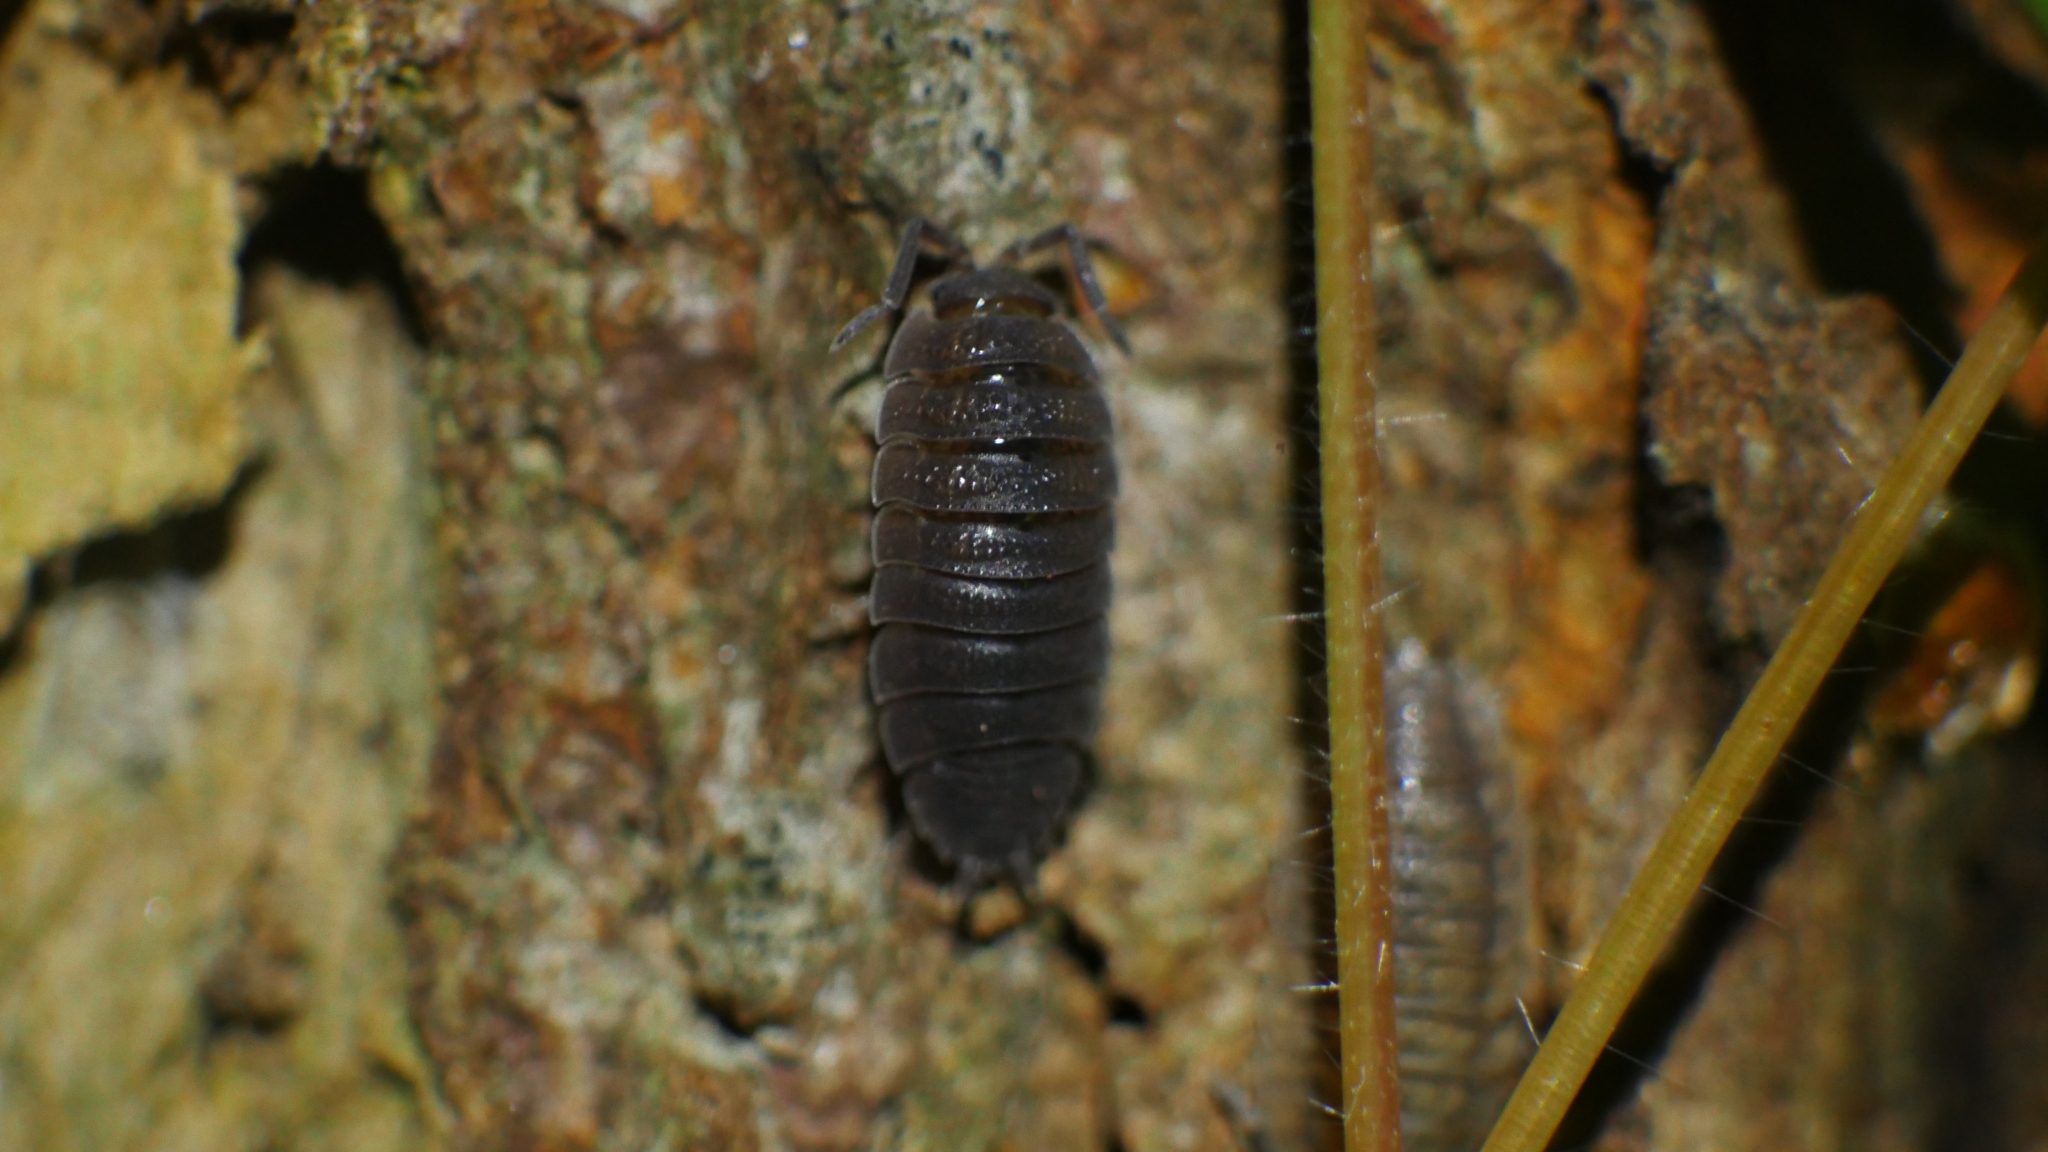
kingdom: Animalia
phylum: Arthropoda
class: Malacostraca
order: Isopoda
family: Porcellionidae
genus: Porcellio
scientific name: Porcellio scaber
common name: Common rough woodlouse
